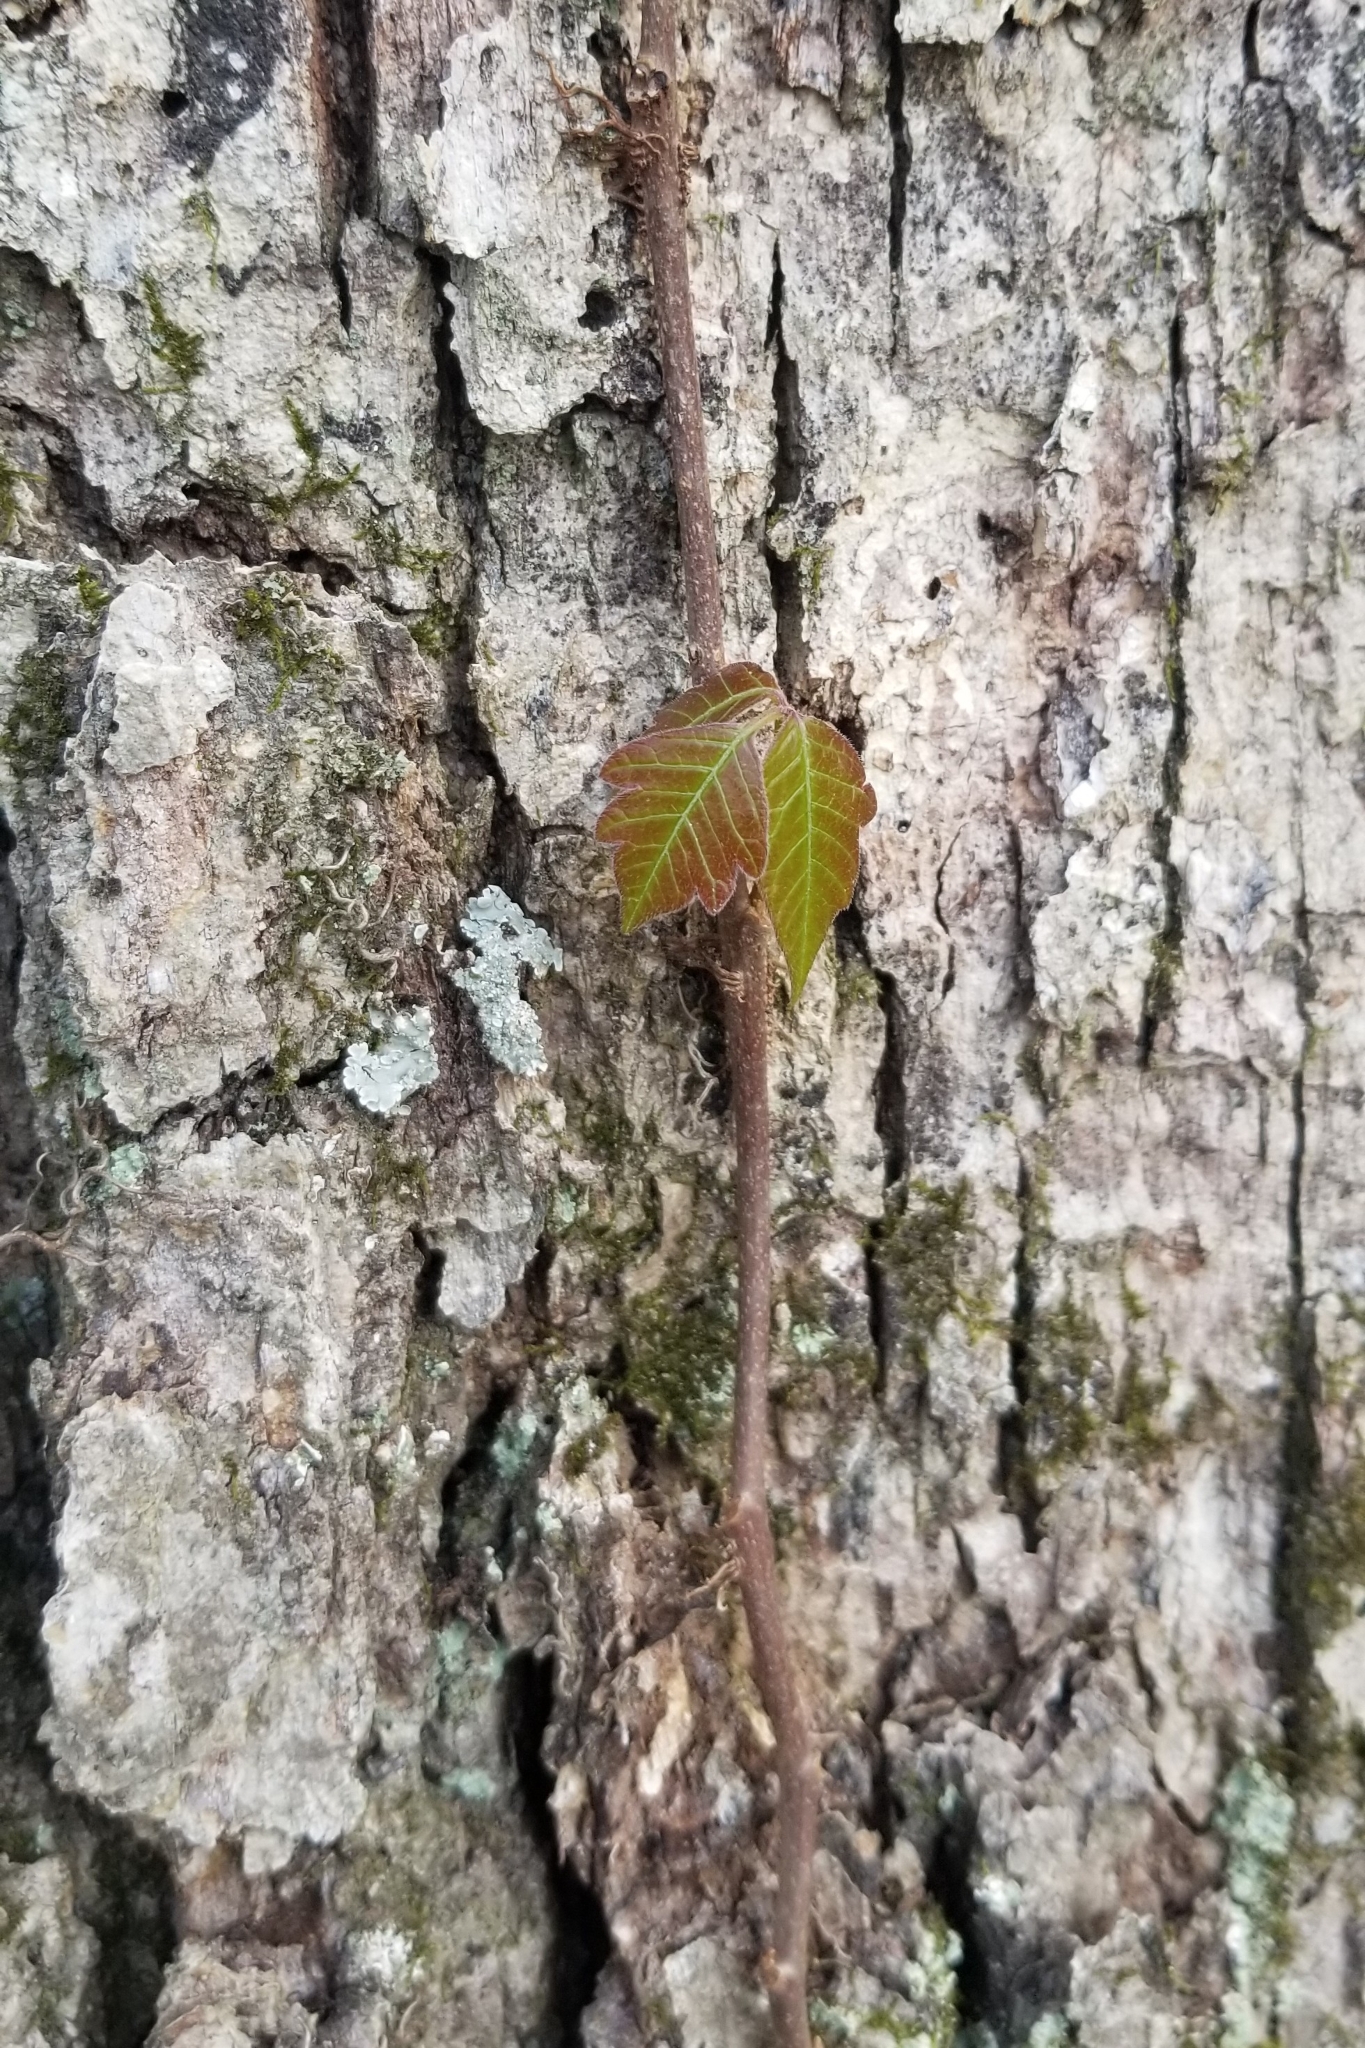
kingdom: Plantae
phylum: Tracheophyta
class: Magnoliopsida
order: Sapindales
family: Anacardiaceae
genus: Toxicodendron
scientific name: Toxicodendron radicans
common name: Poison ivy
